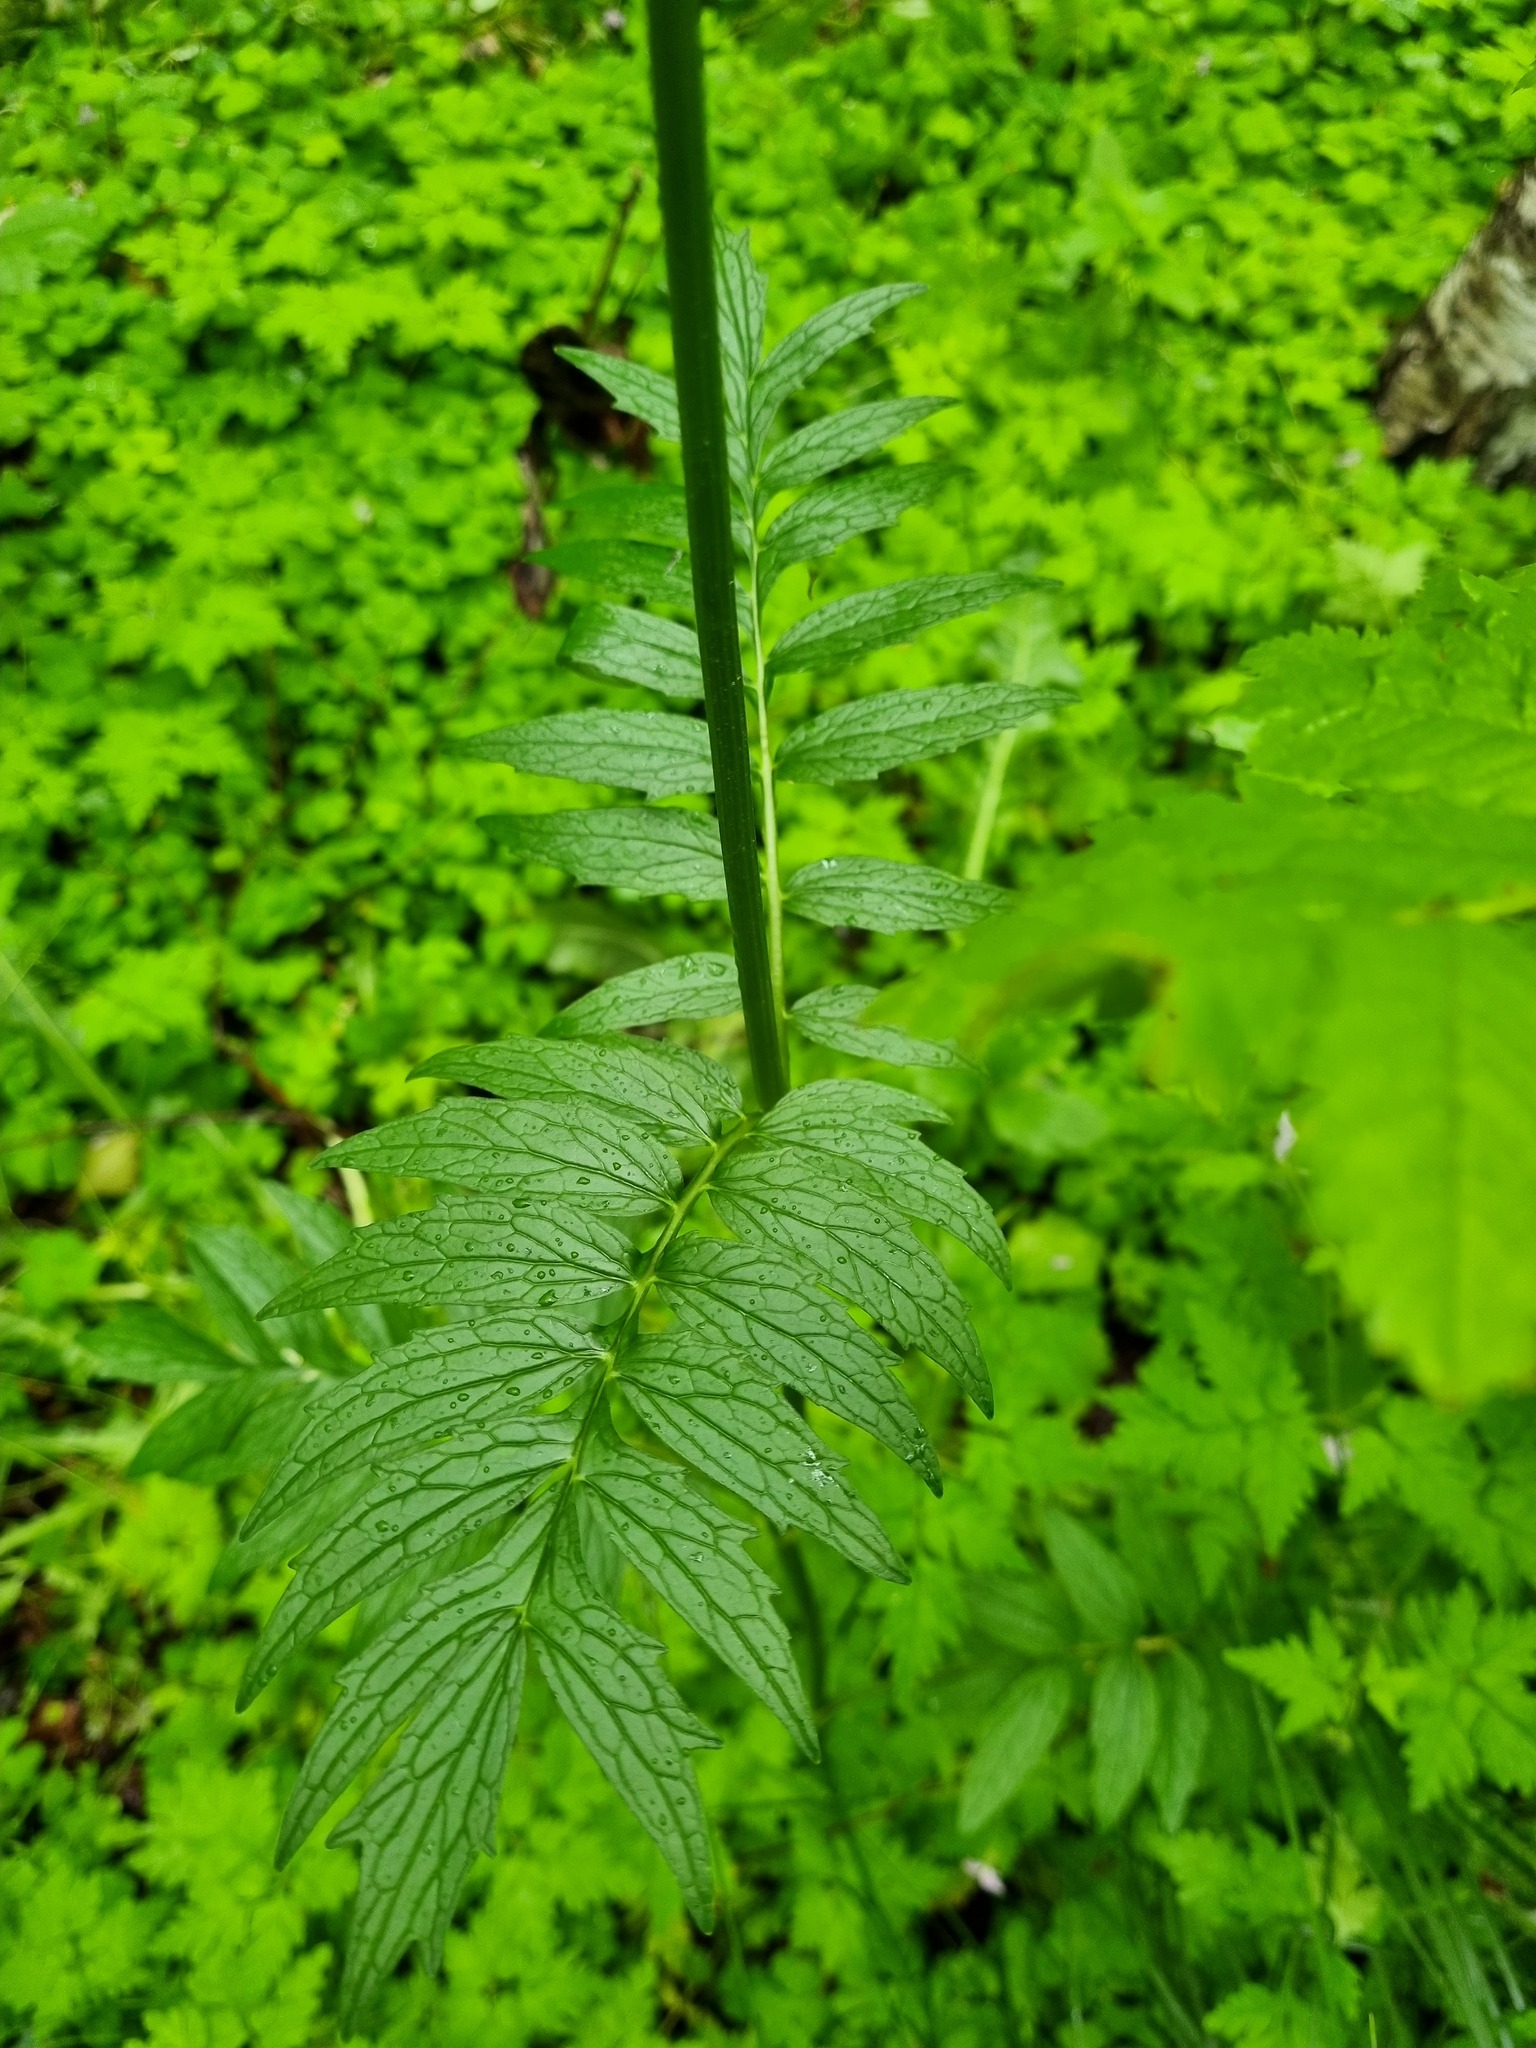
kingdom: Plantae
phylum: Tracheophyta
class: Magnoliopsida
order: Dipsacales
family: Caprifoliaceae
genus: Valeriana
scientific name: Valeriana officinalis
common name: Common valerian
